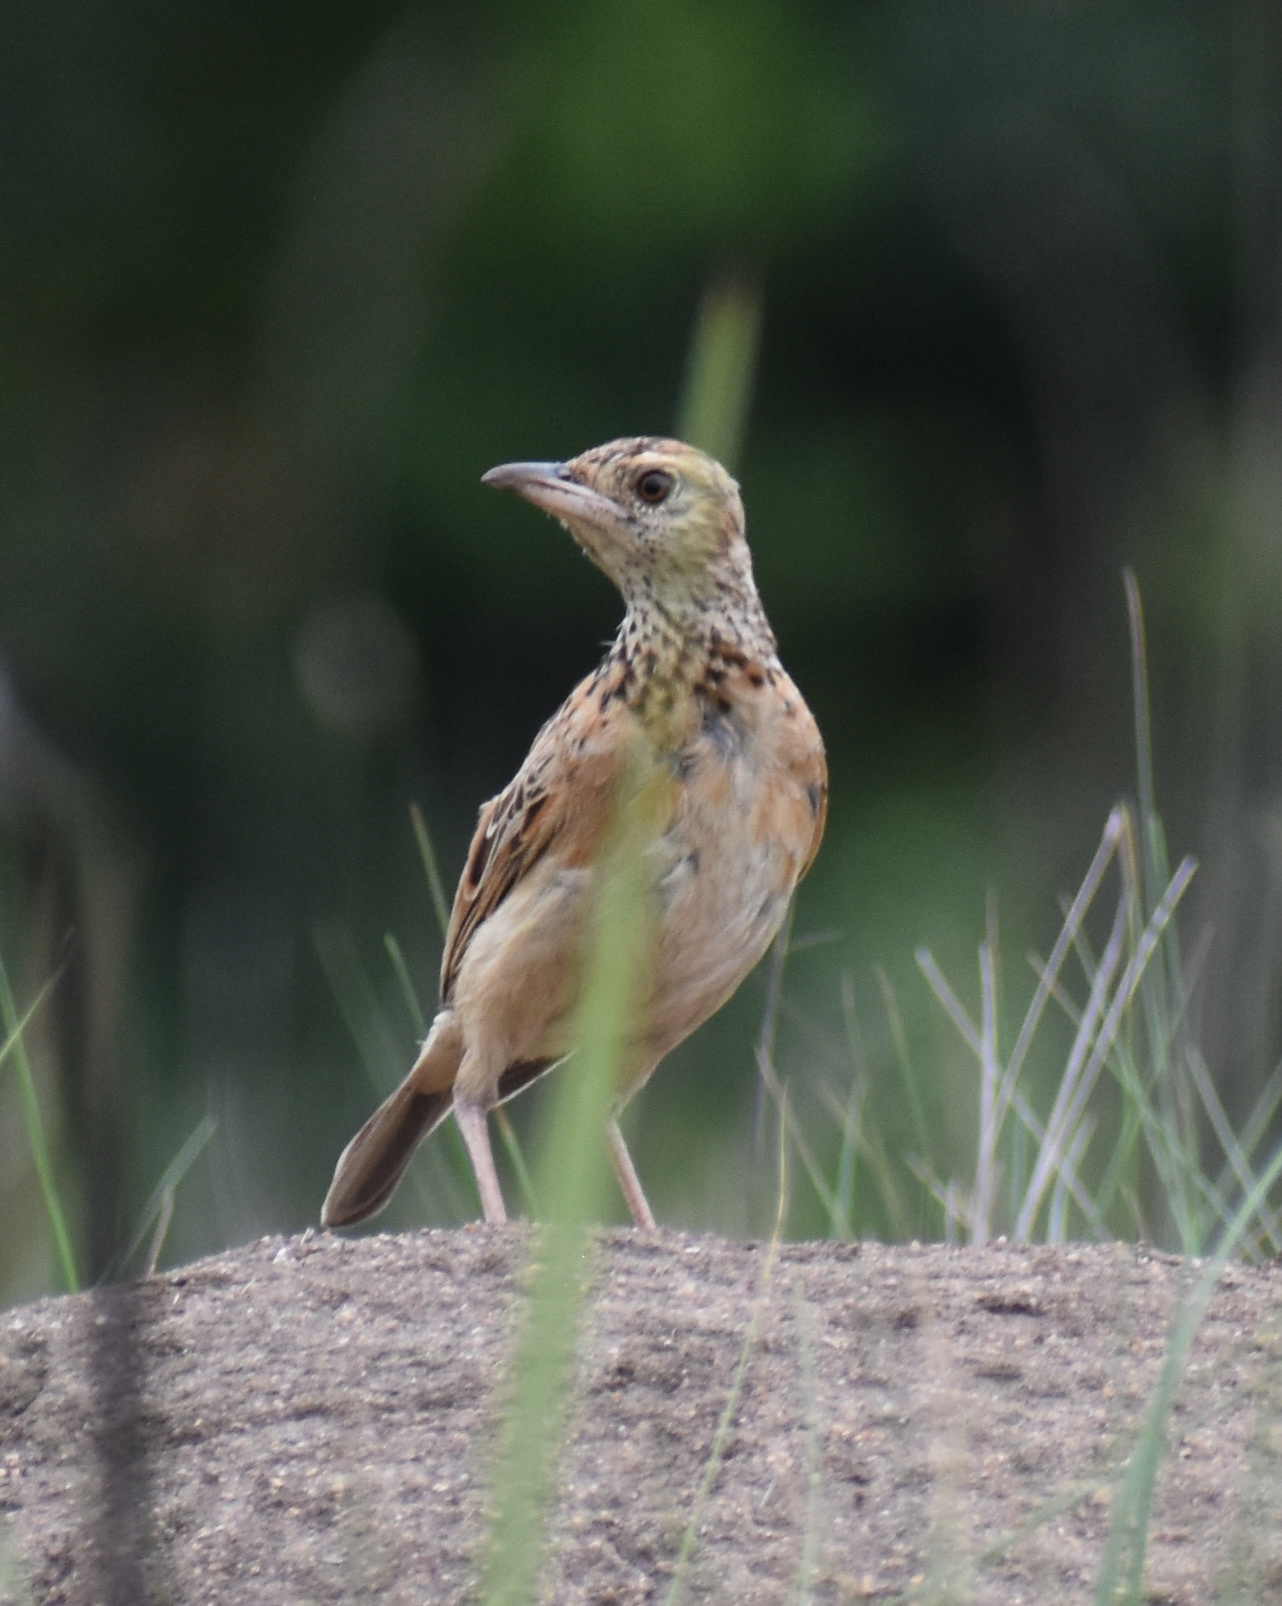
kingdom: Animalia
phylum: Chordata
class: Aves
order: Passeriformes
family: Alaudidae
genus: Mirafra
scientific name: Mirafra africana
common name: Rufous-naped lark
